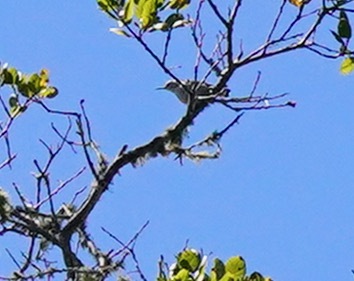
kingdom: Animalia
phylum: Chordata
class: Aves
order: Passeriformes
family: Sittidae
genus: Sitta
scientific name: Sitta carolinensis
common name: White-breasted nuthatch
